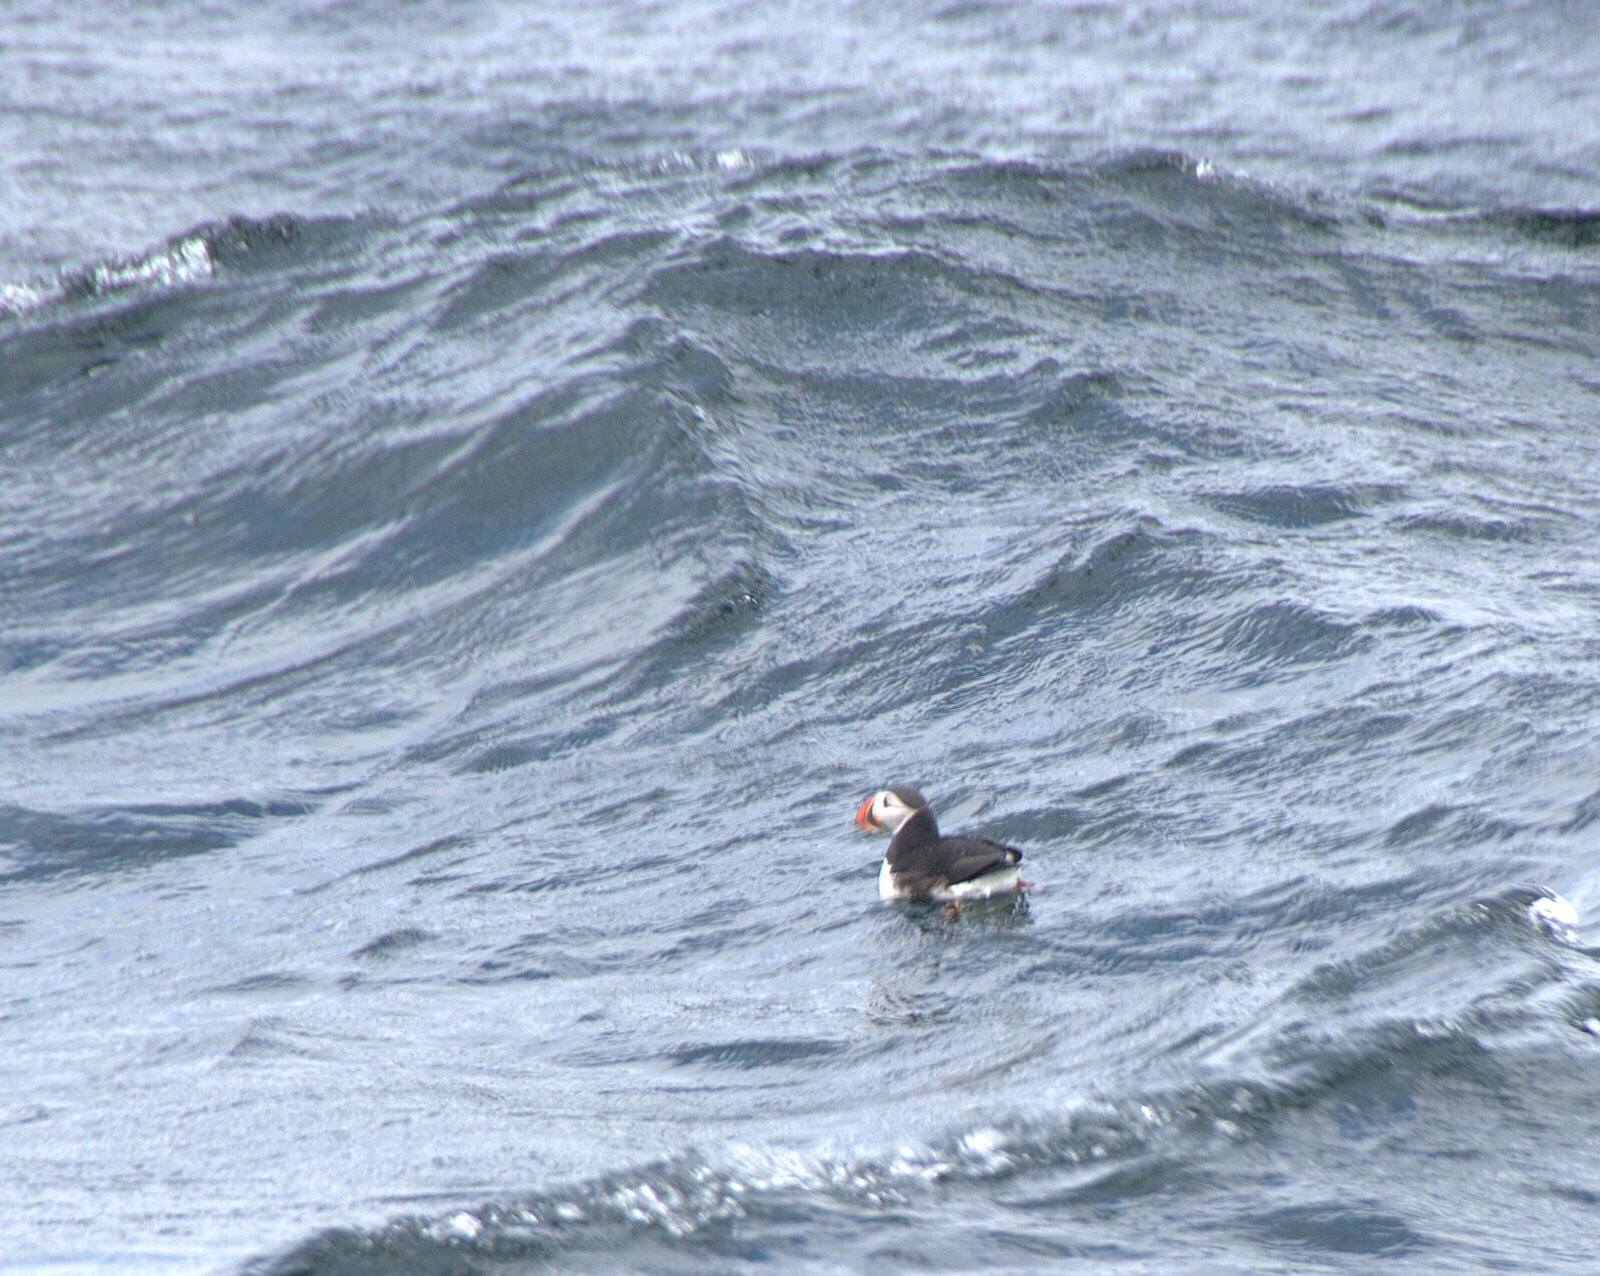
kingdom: Animalia
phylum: Chordata
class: Aves
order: Charadriiformes
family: Alcidae
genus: Fratercula
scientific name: Fratercula arctica
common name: Atlantic puffin
